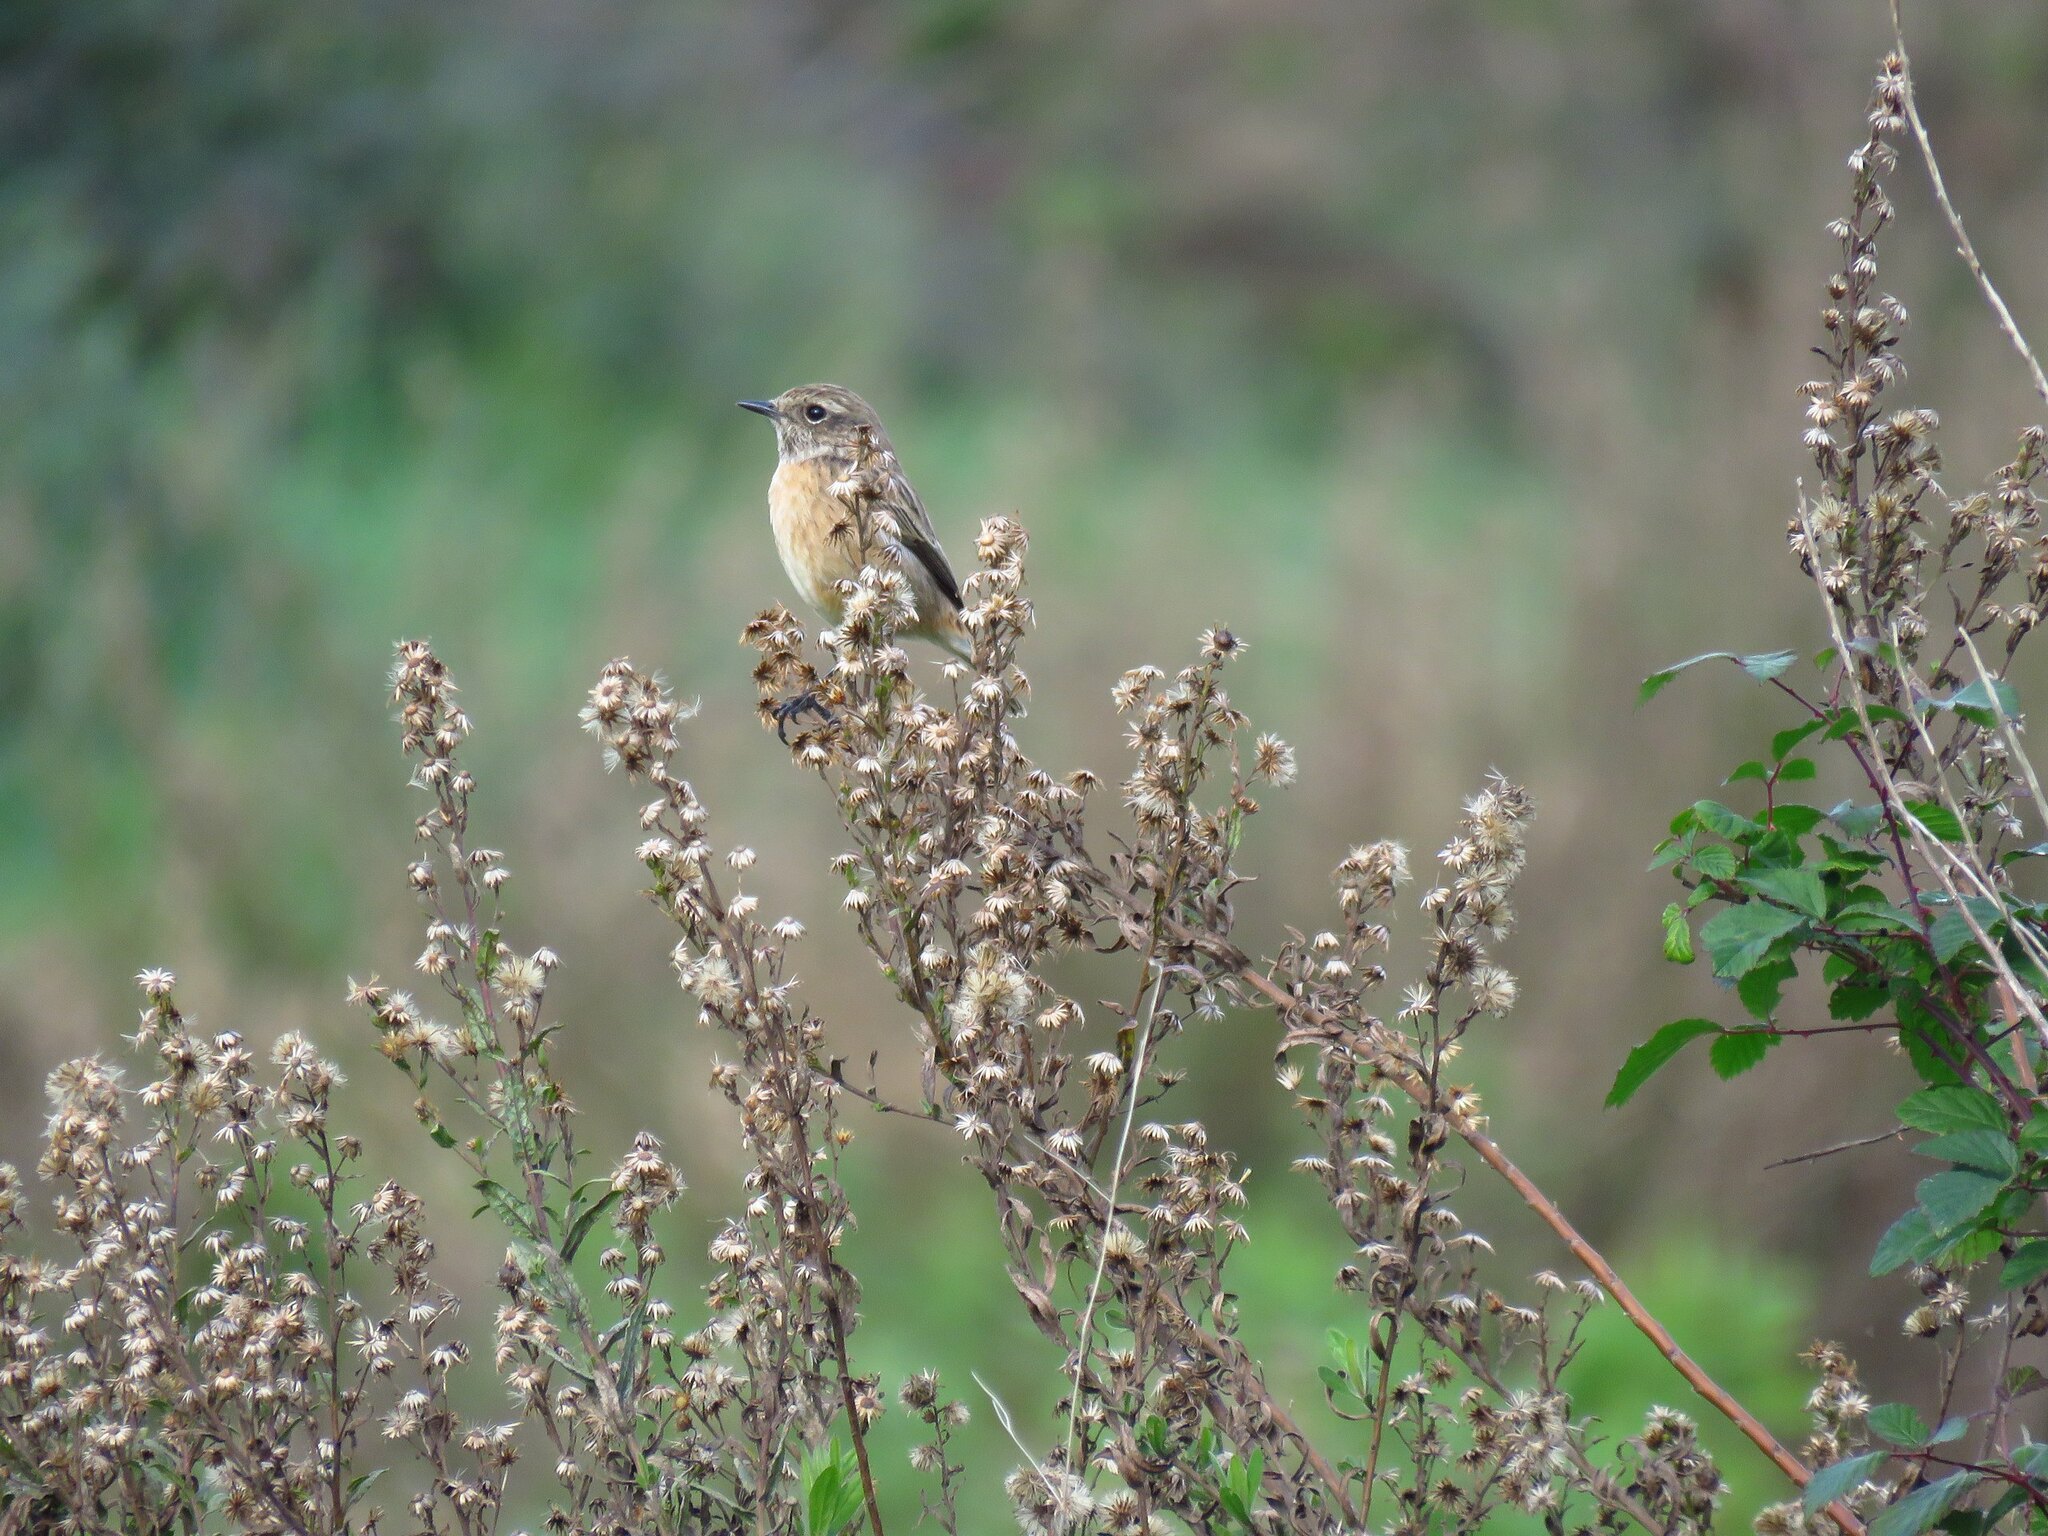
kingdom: Animalia
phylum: Chordata
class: Aves
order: Passeriformes
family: Muscicapidae
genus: Saxicola
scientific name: Saxicola rubicola
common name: European stonechat
